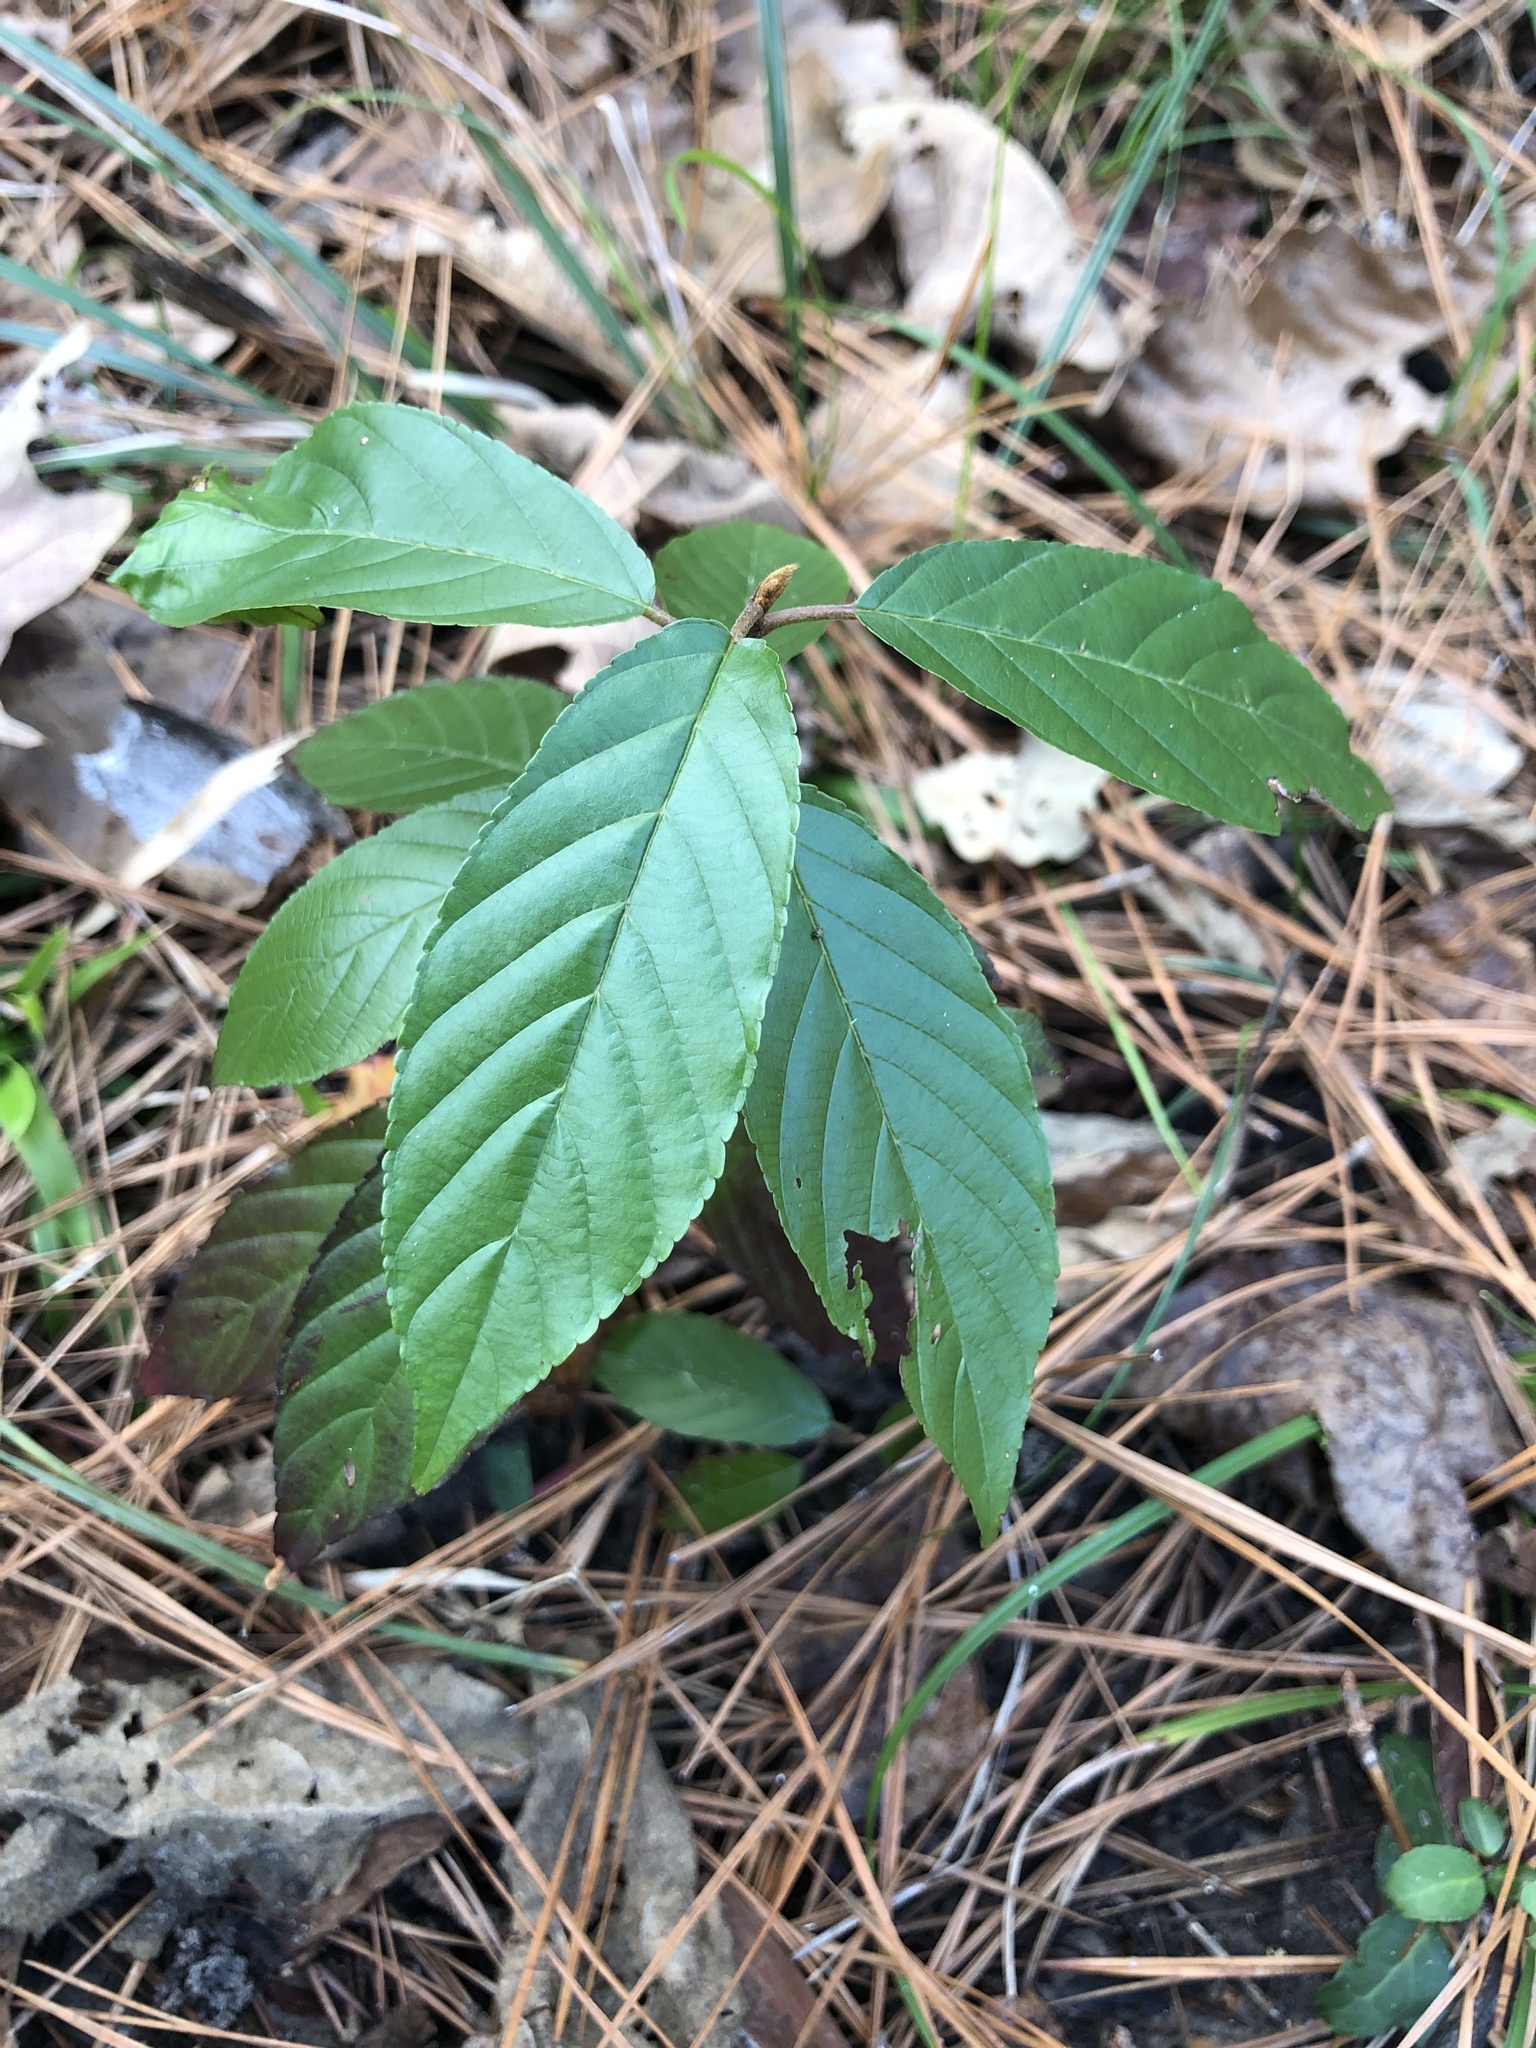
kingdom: Plantae
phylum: Tracheophyta
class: Magnoliopsida
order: Rosales
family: Rhamnaceae
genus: Frangula
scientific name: Frangula caroliniana
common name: Carolina buckthorn
